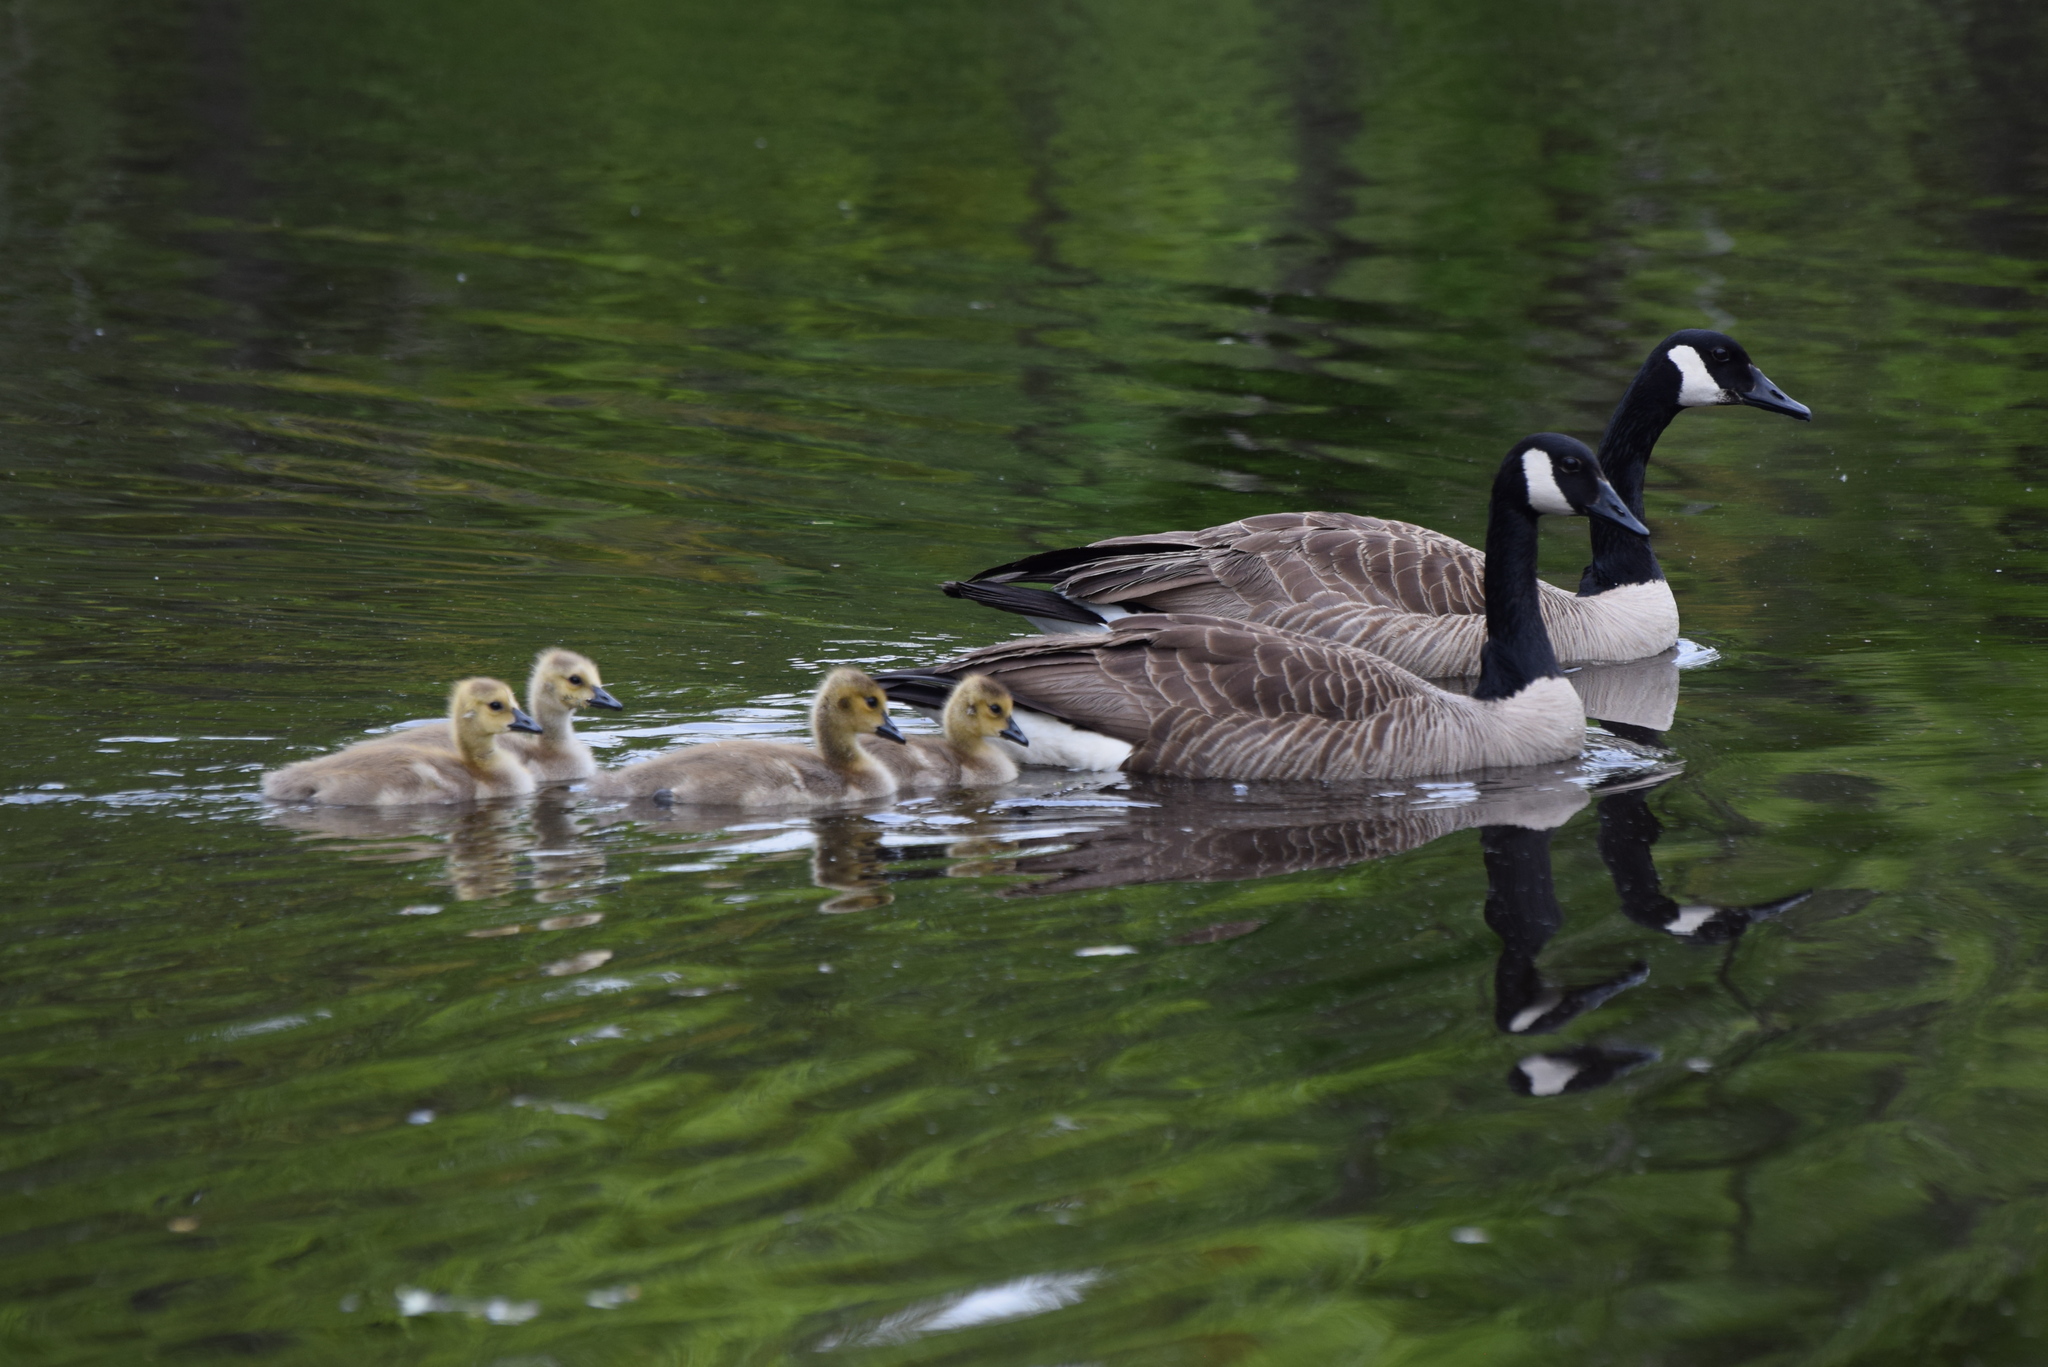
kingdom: Animalia
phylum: Chordata
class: Aves
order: Anseriformes
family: Anatidae
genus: Branta
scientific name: Branta canadensis
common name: Canada goose
